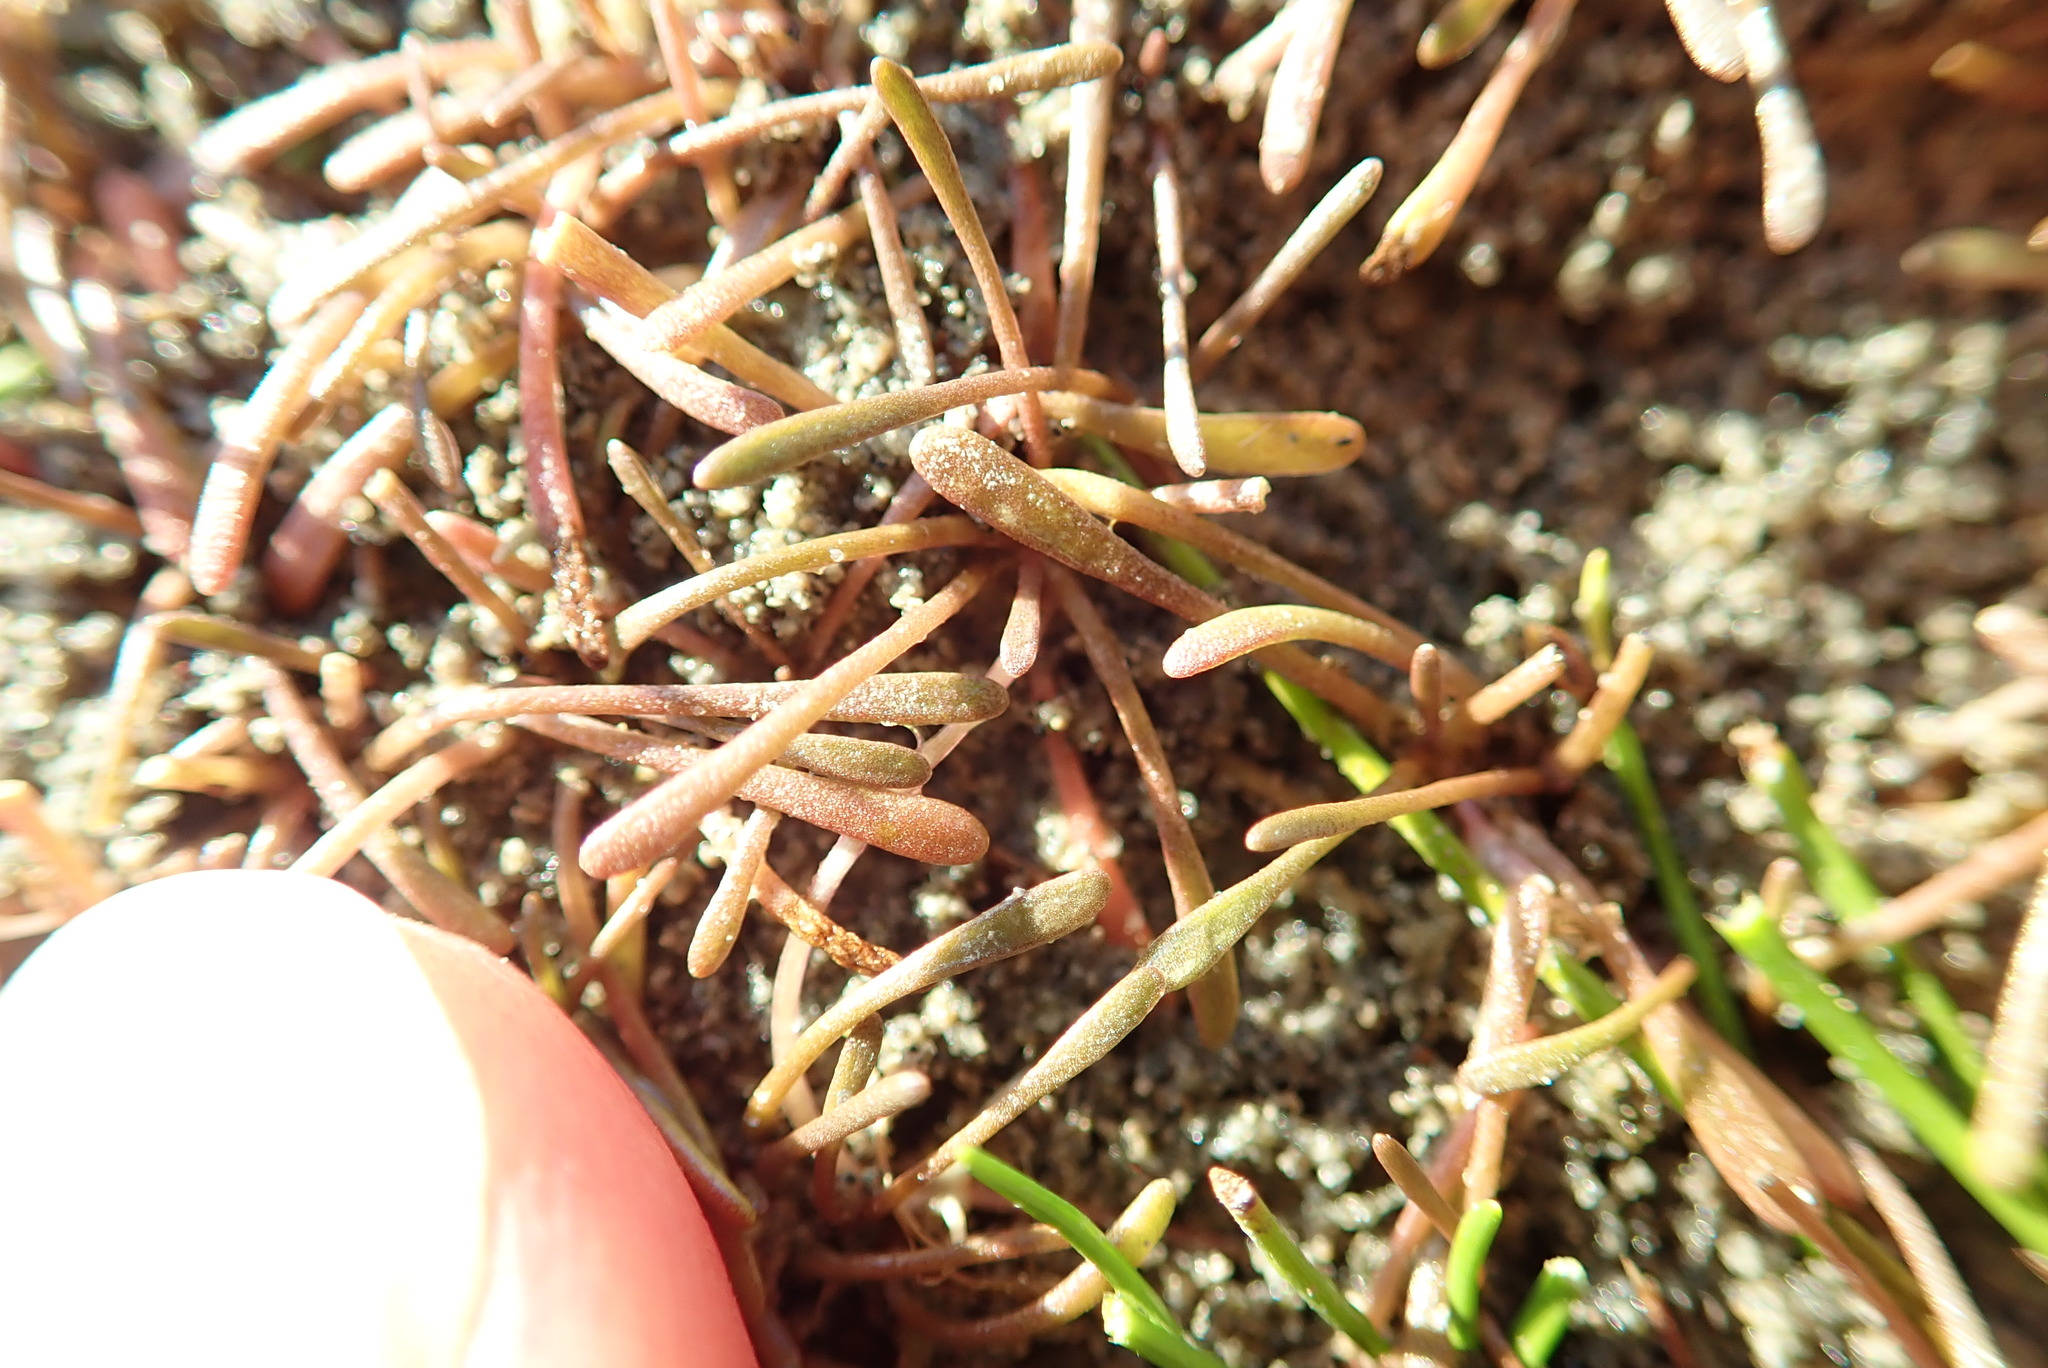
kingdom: Plantae
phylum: Tracheophyta
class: Magnoliopsida
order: Lamiales
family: Scrophulariaceae
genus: Limosella
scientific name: Limosella australis
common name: Welsh mudwort
